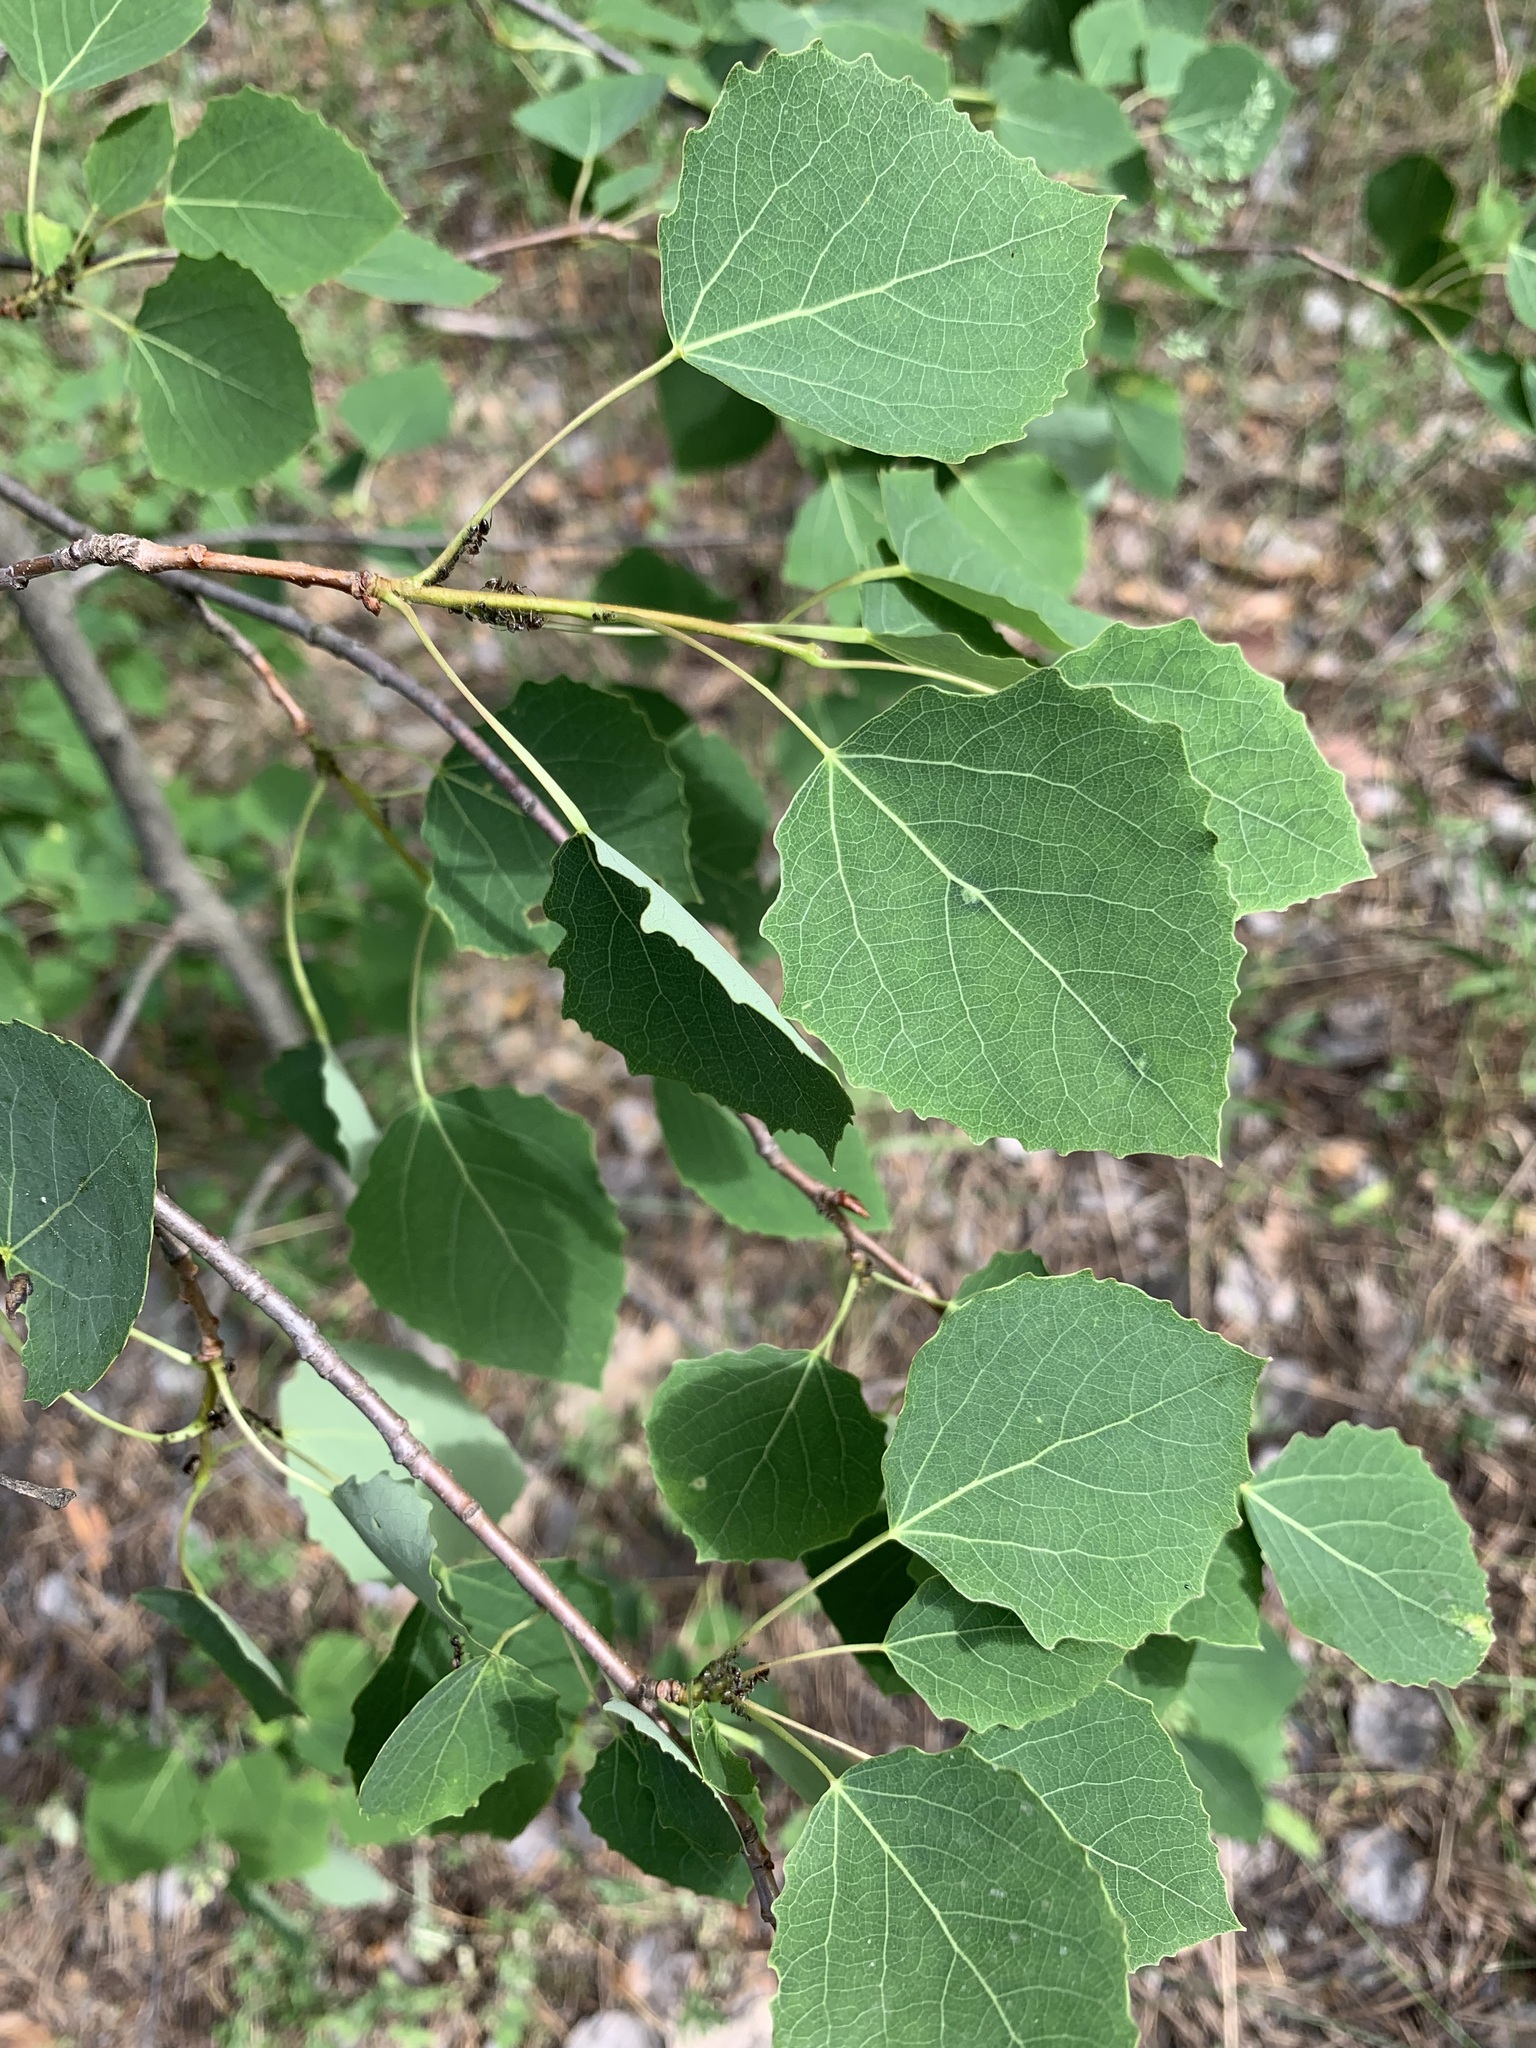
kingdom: Plantae
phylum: Tracheophyta
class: Magnoliopsida
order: Malpighiales
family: Salicaceae
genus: Populus
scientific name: Populus tremula
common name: European aspen
